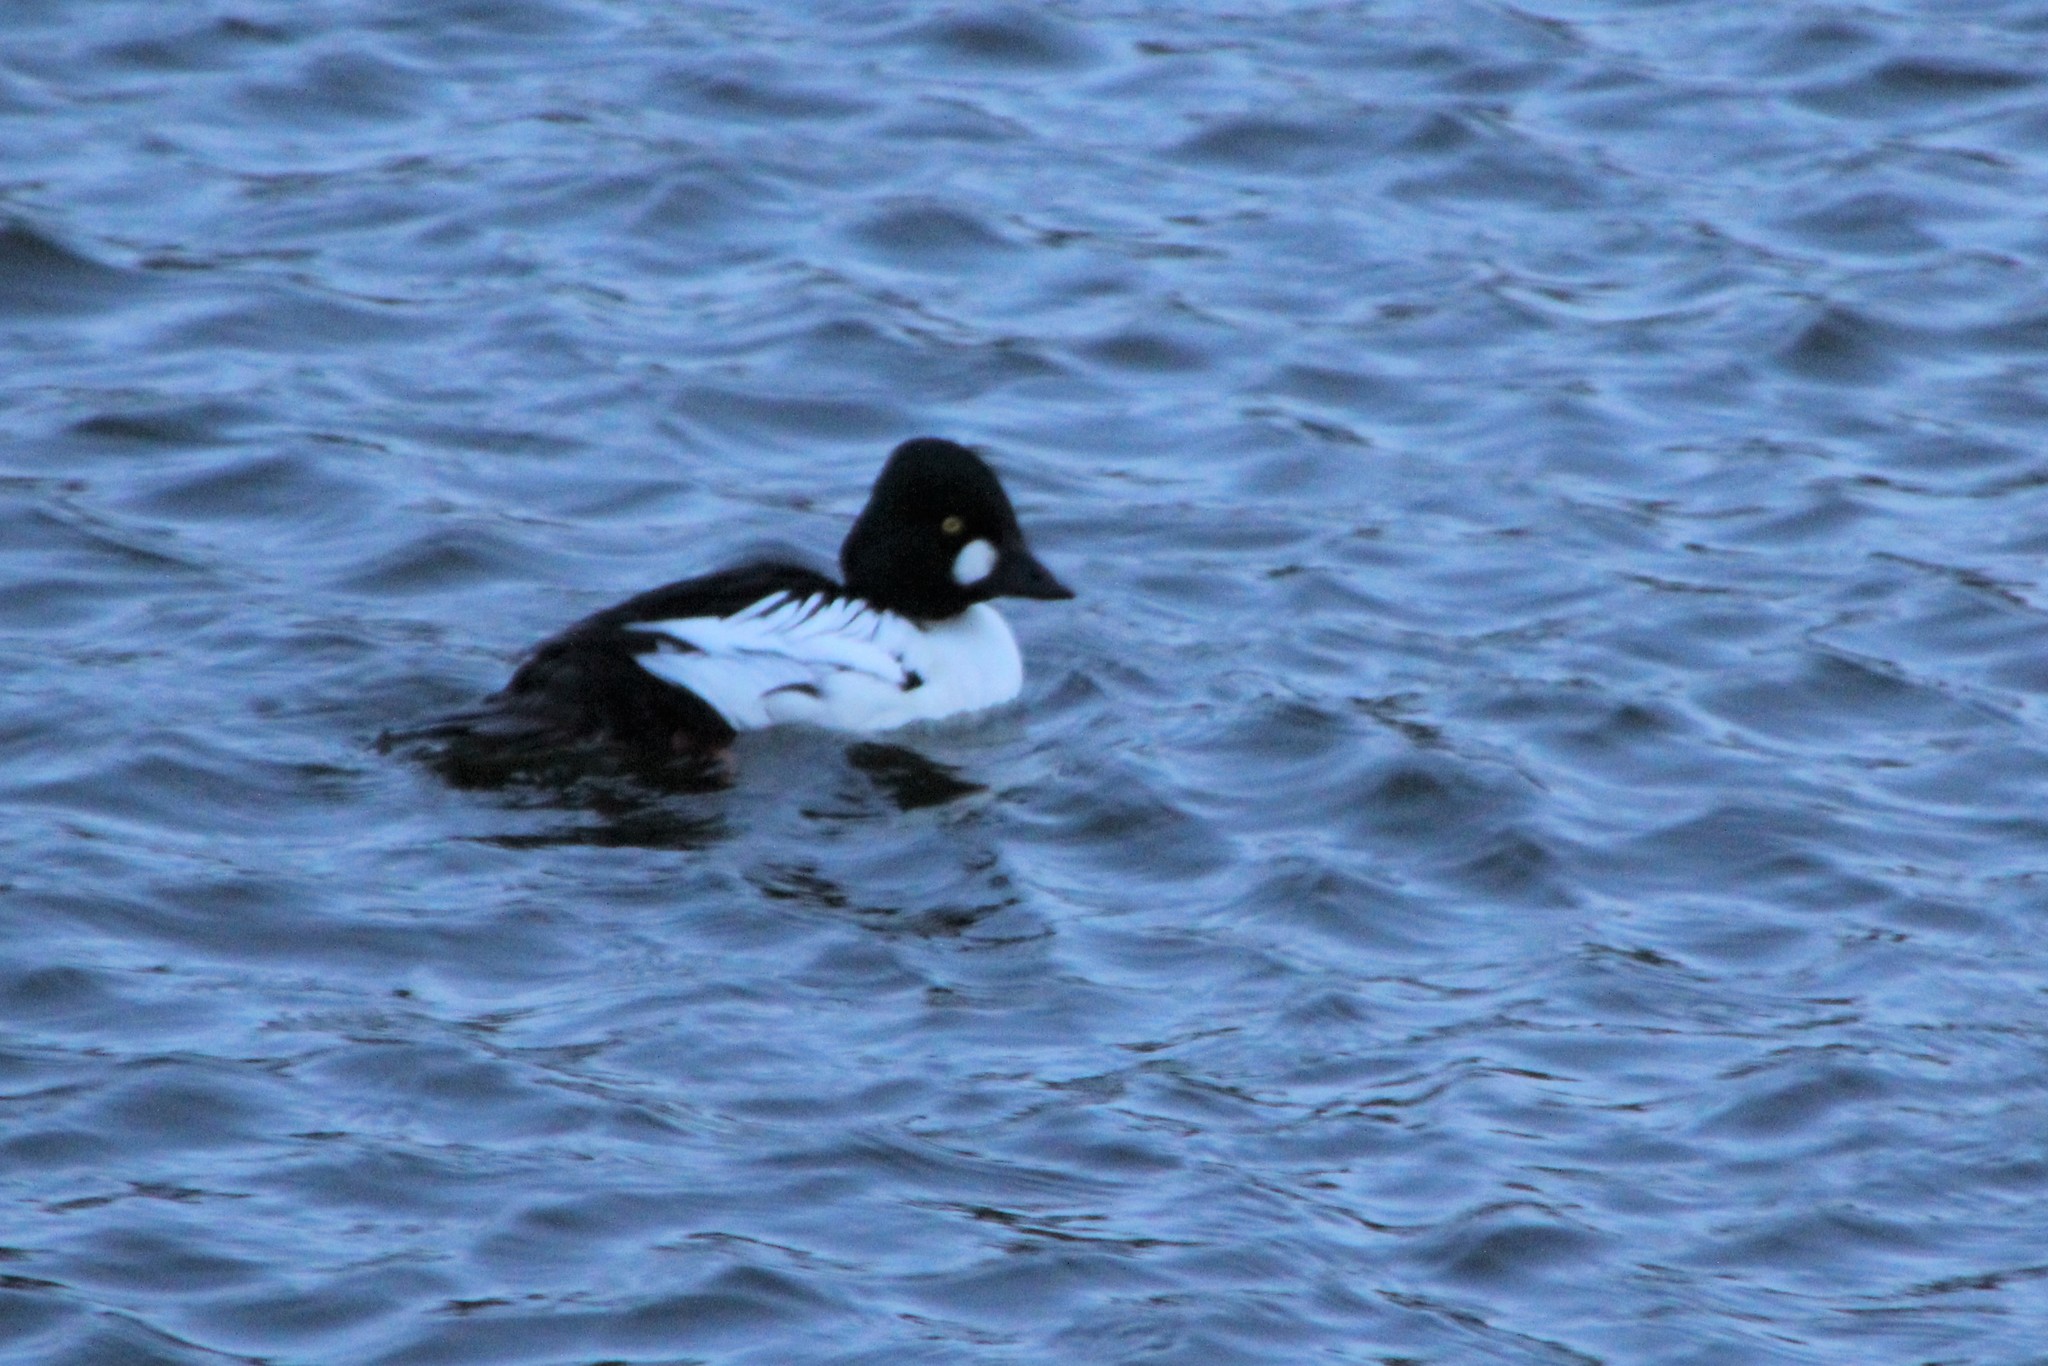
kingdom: Animalia
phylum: Chordata
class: Aves
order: Anseriformes
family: Anatidae
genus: Bucephala
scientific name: Bucephala clangula
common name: Common goldeneye
